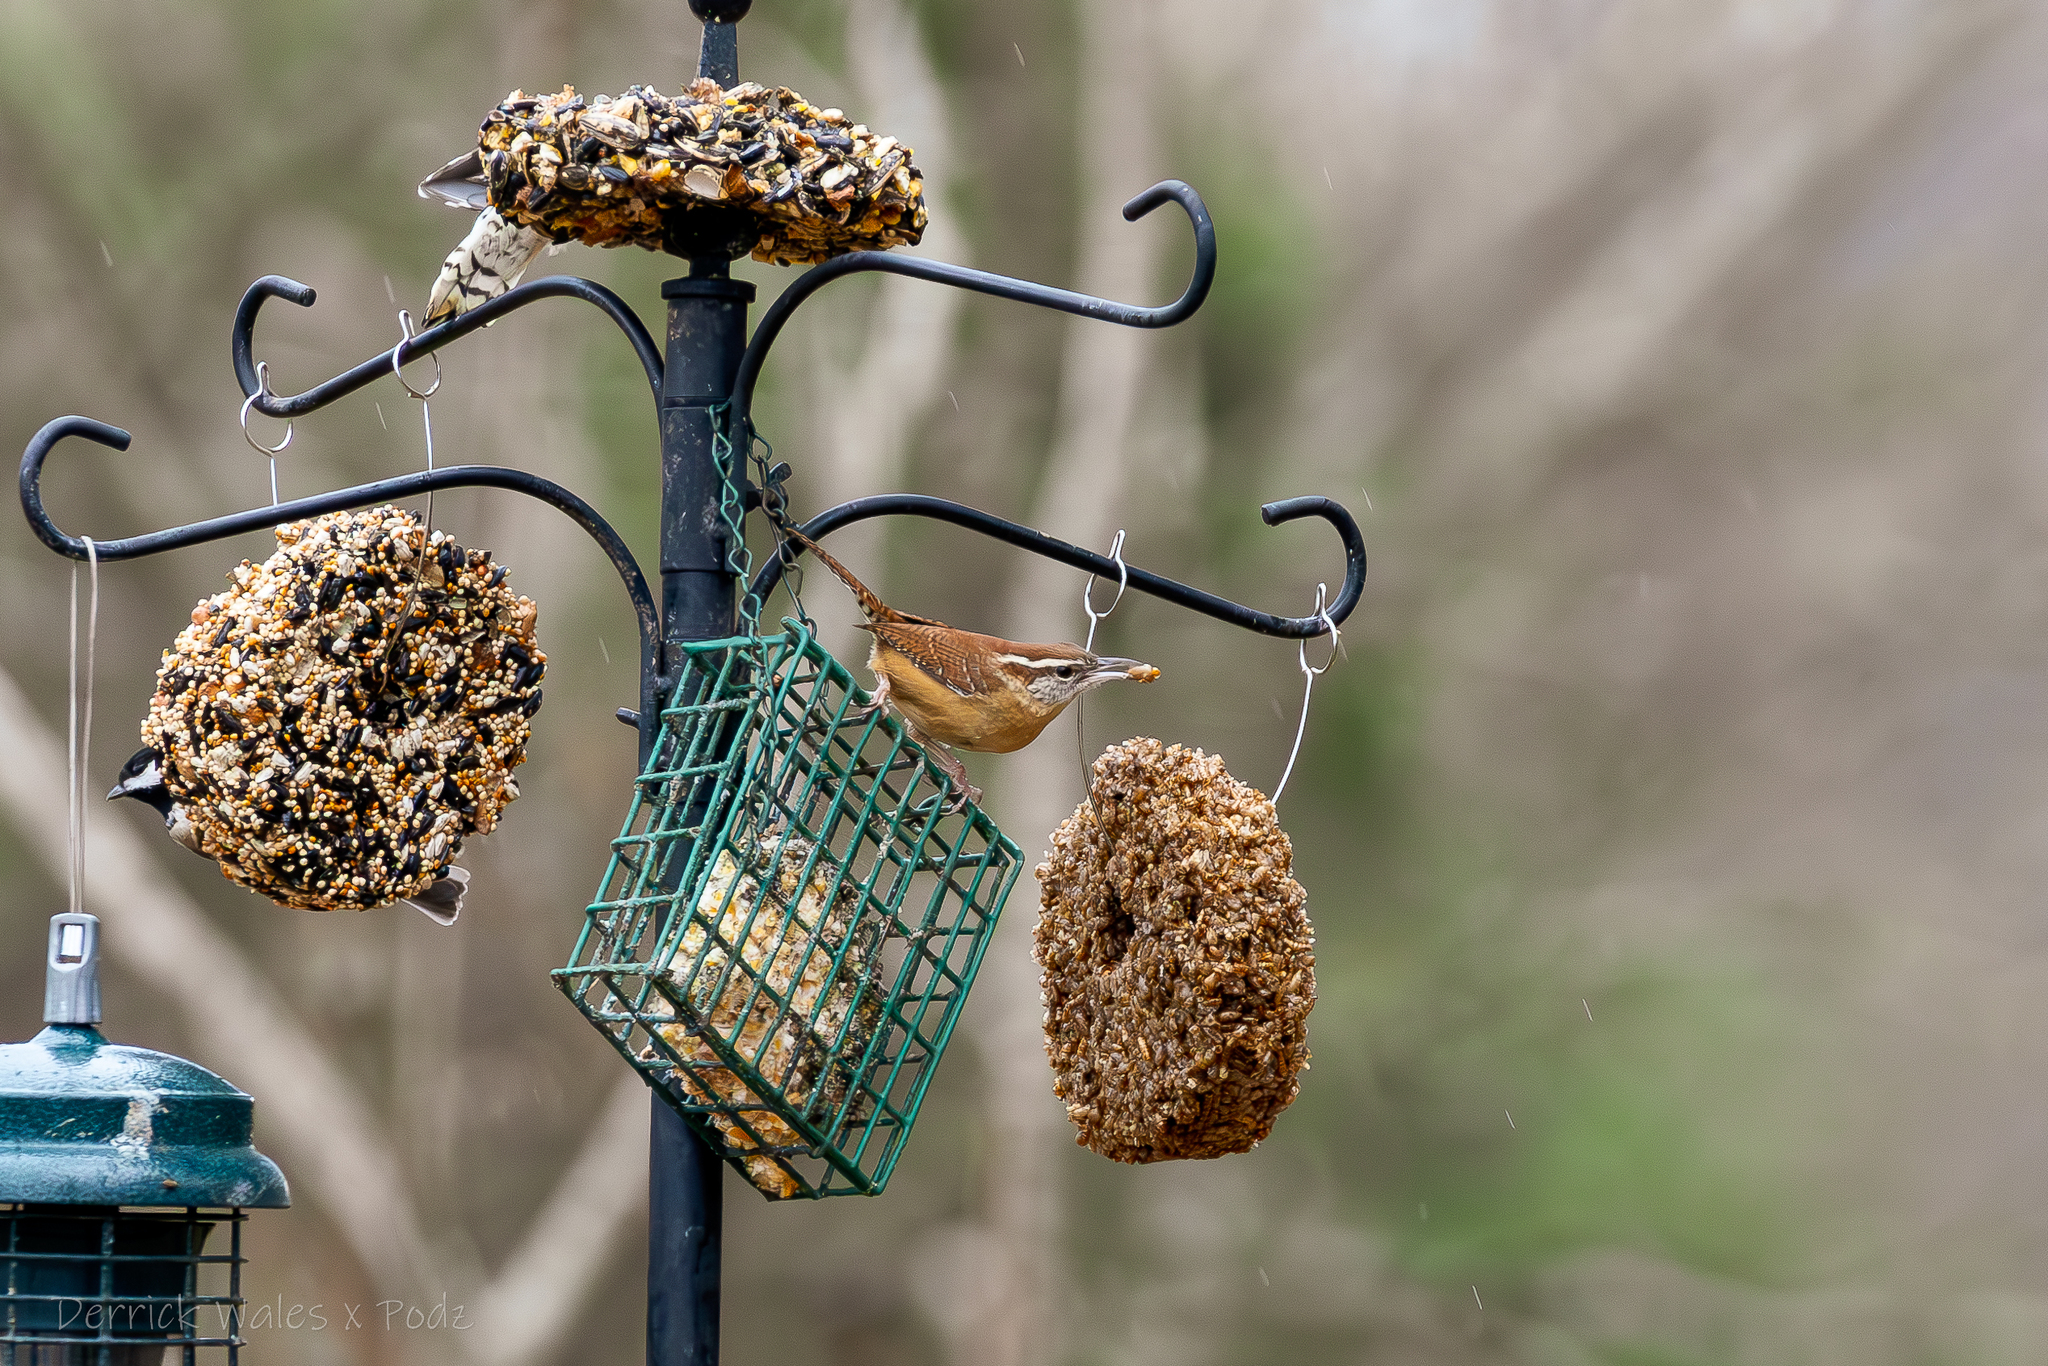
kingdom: Animalia
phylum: Chordata
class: Aves
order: Passeriformes
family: Troglodytidae
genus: Thryothorus
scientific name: Thryothorus ludovicianus
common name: Carolina wren
